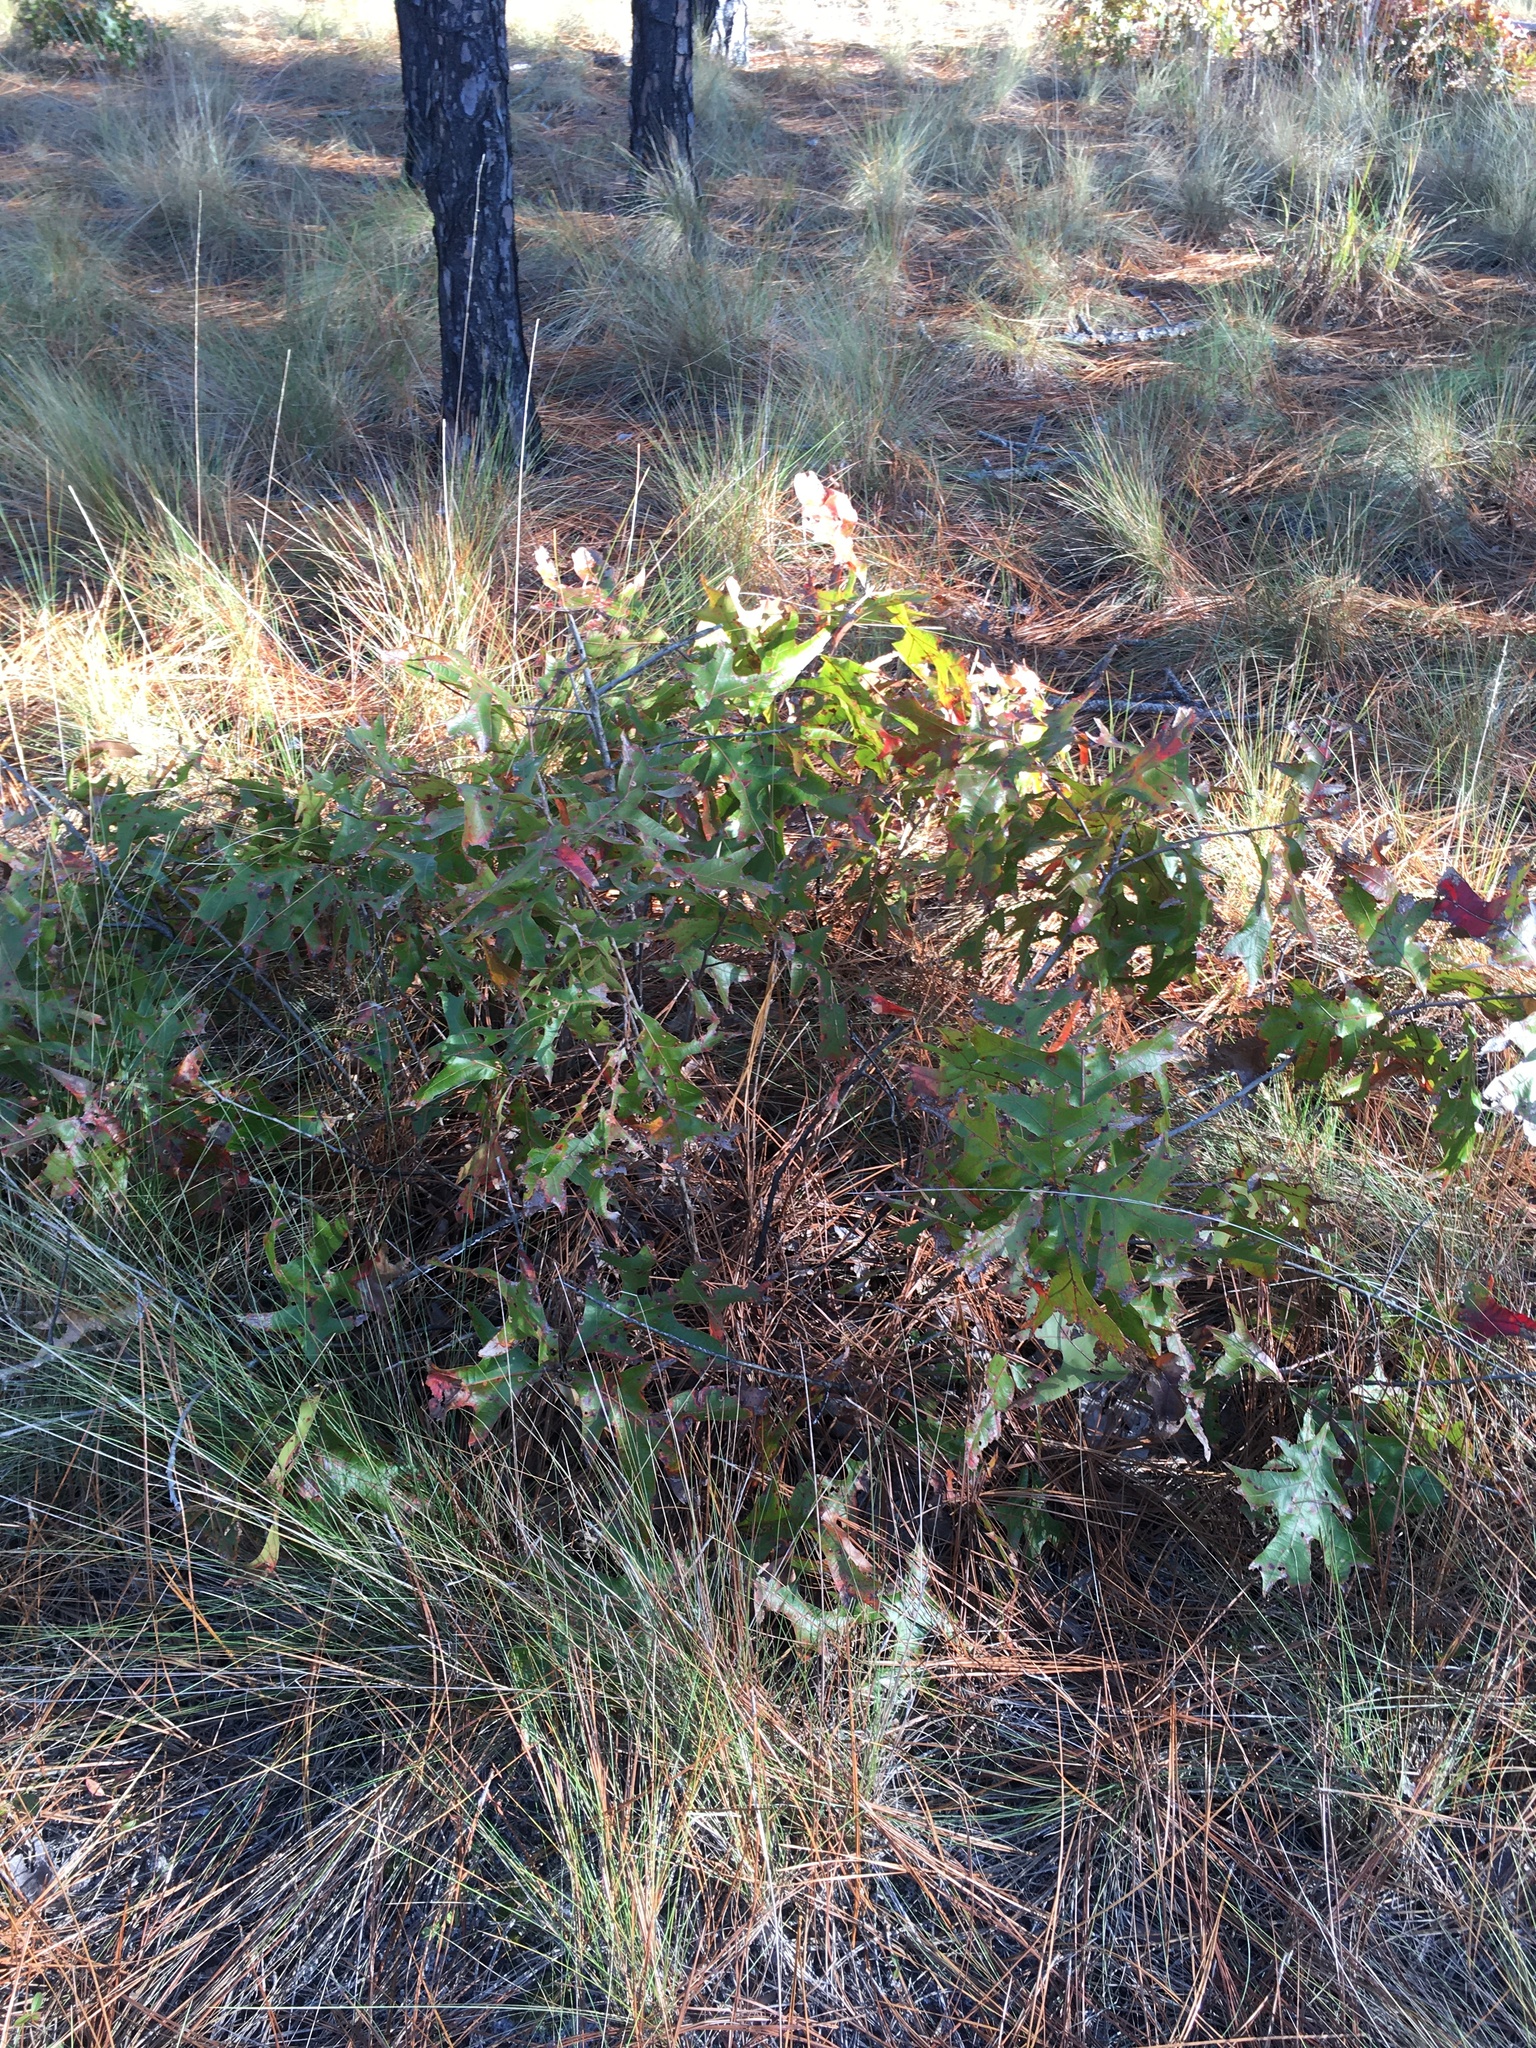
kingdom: Plantae
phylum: Tracheophyta
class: Magnoliopsida
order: Fagales
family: Fagaceae
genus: Quercus
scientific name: Quercus laevis
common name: Turkey oak
